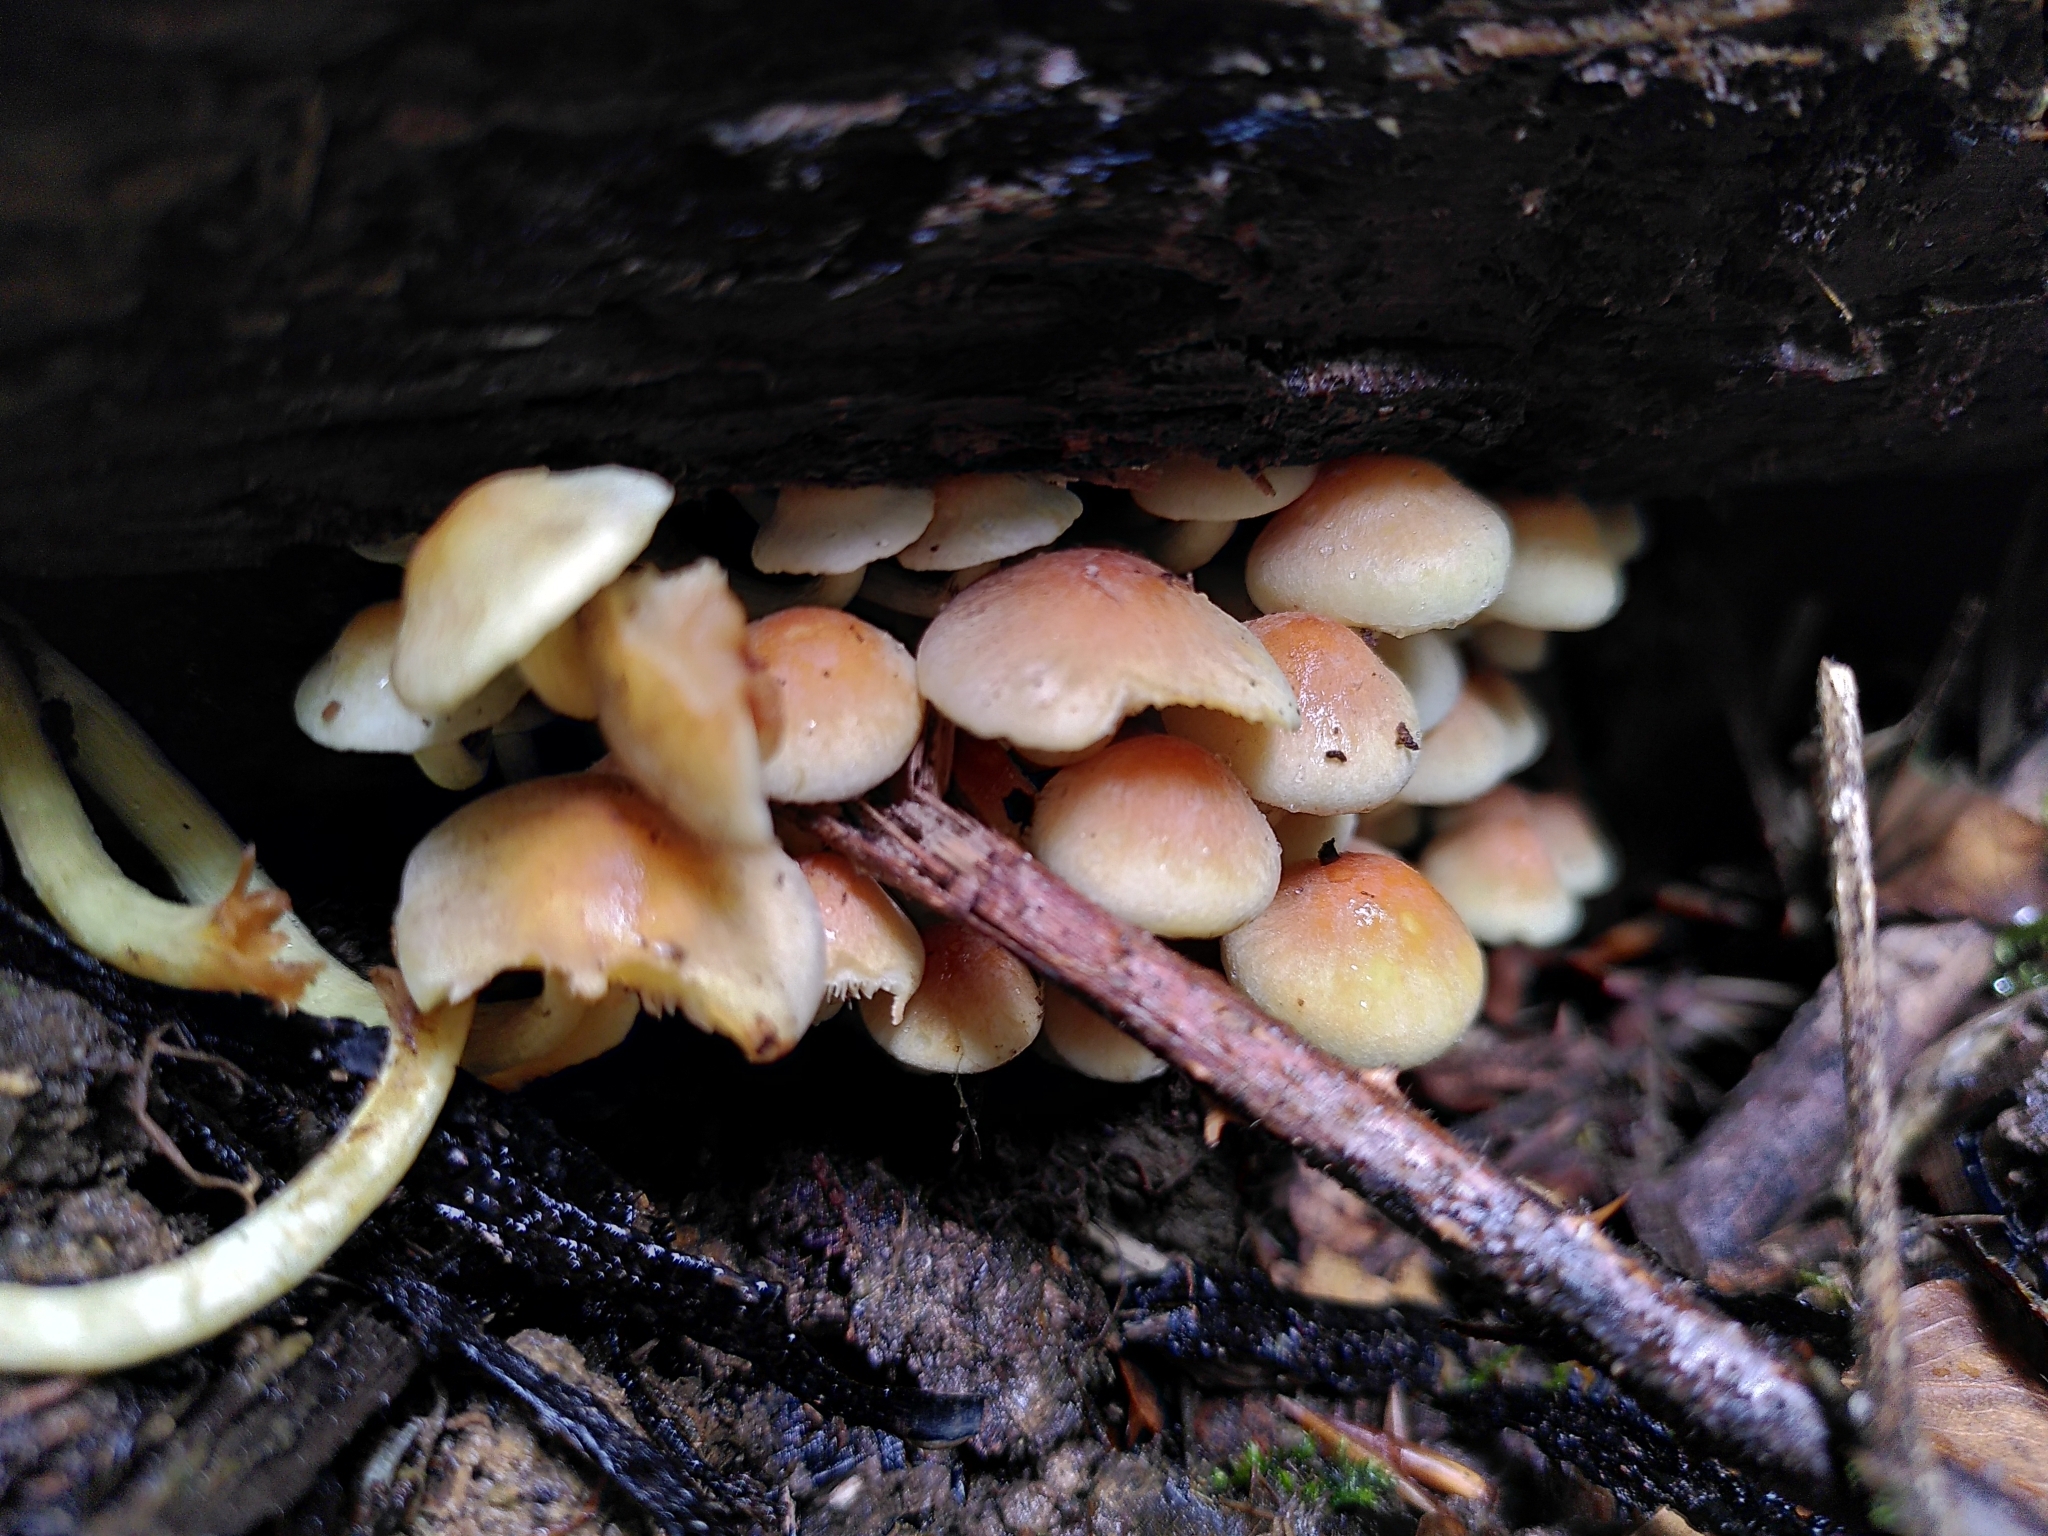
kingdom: Fungi
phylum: Basidiomycota
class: Agaricomycetes
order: Agaricales
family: Strophariaceae
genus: Hypholoma
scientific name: Hypholoma fasciculare
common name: Sulphur tuft
